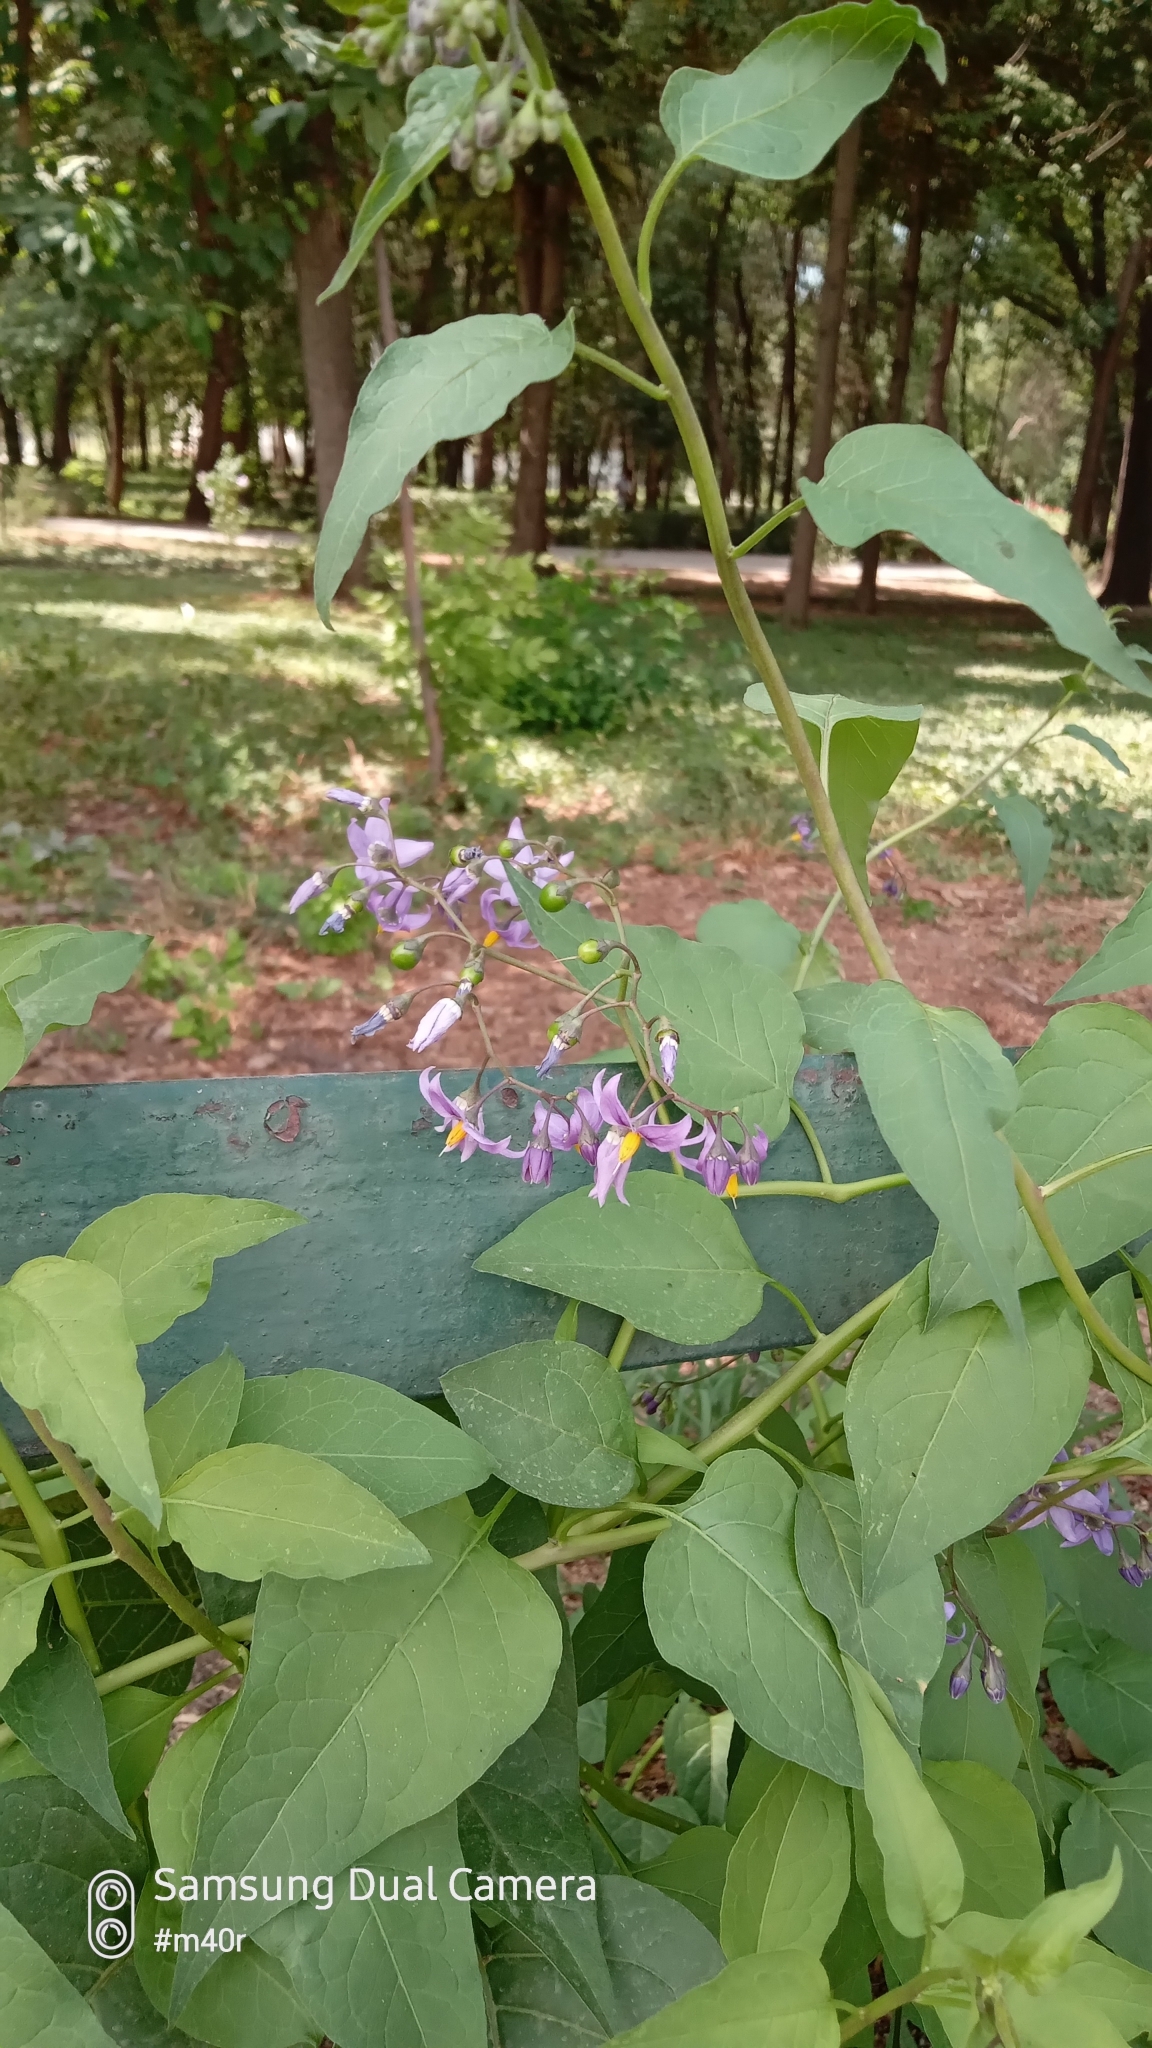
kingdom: Plantae
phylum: Tracheophyta
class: Magnoliopsida
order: Solanales
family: Solanaceae
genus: Solanum
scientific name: Solanum dulcamara
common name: Climbing nightshade
